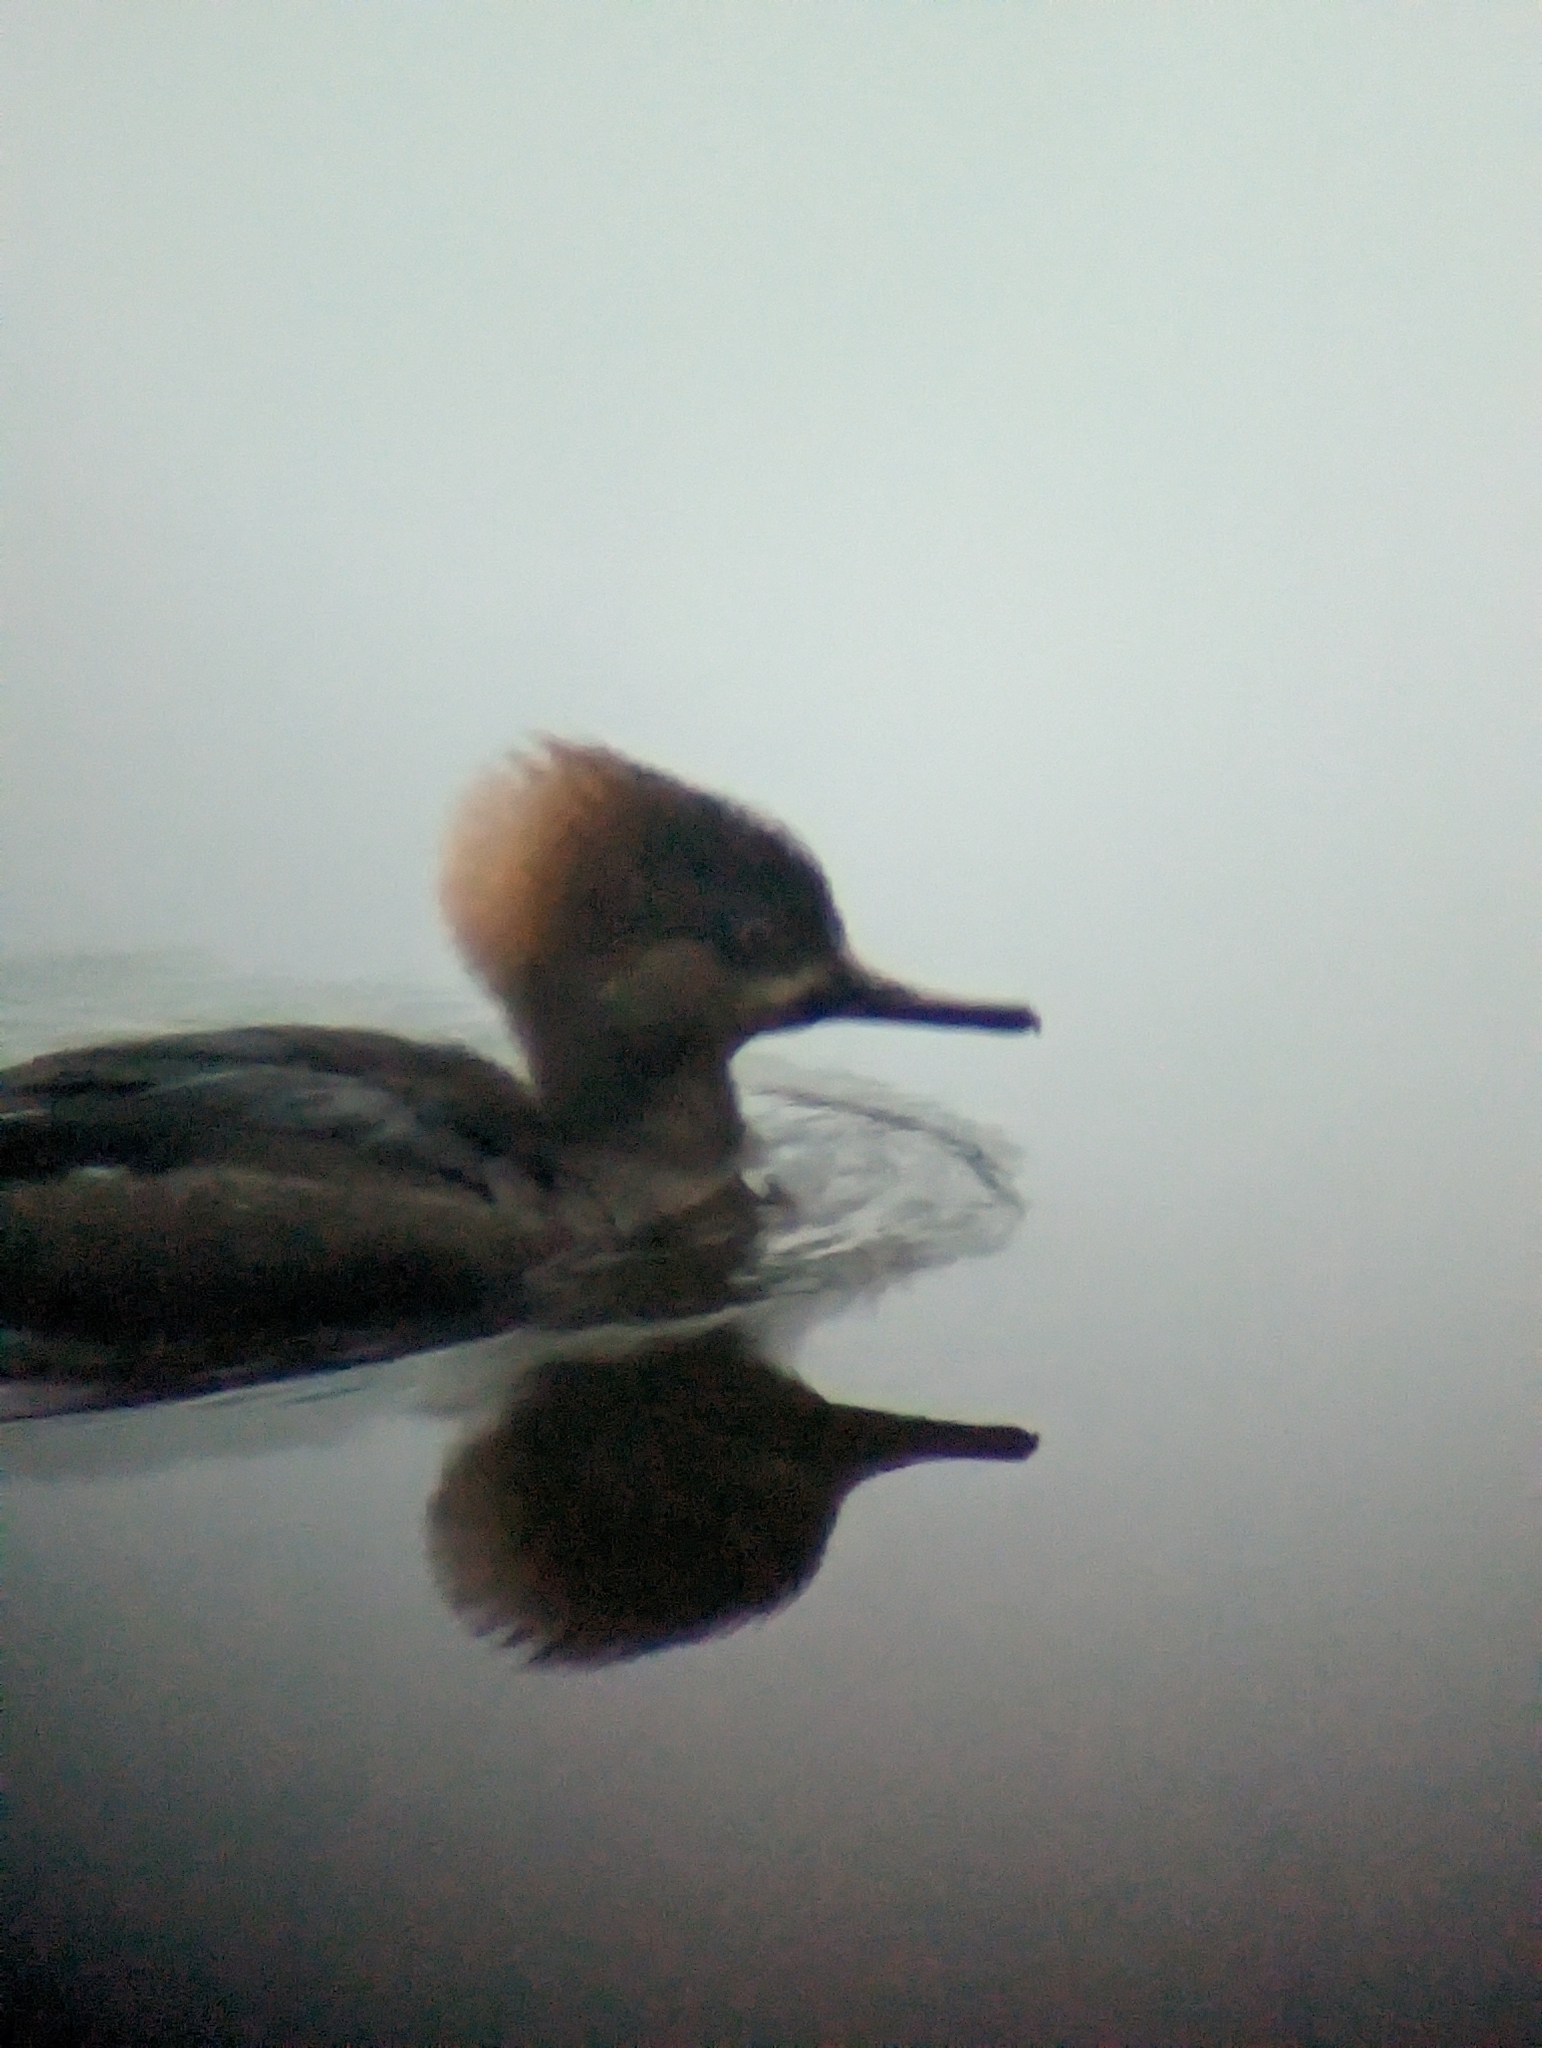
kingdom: Animalia
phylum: Chordata
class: Aves
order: Anseriformes
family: Anatidae
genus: Lophodytes
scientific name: Lophodytes cucullatus
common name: Hooded merganser
